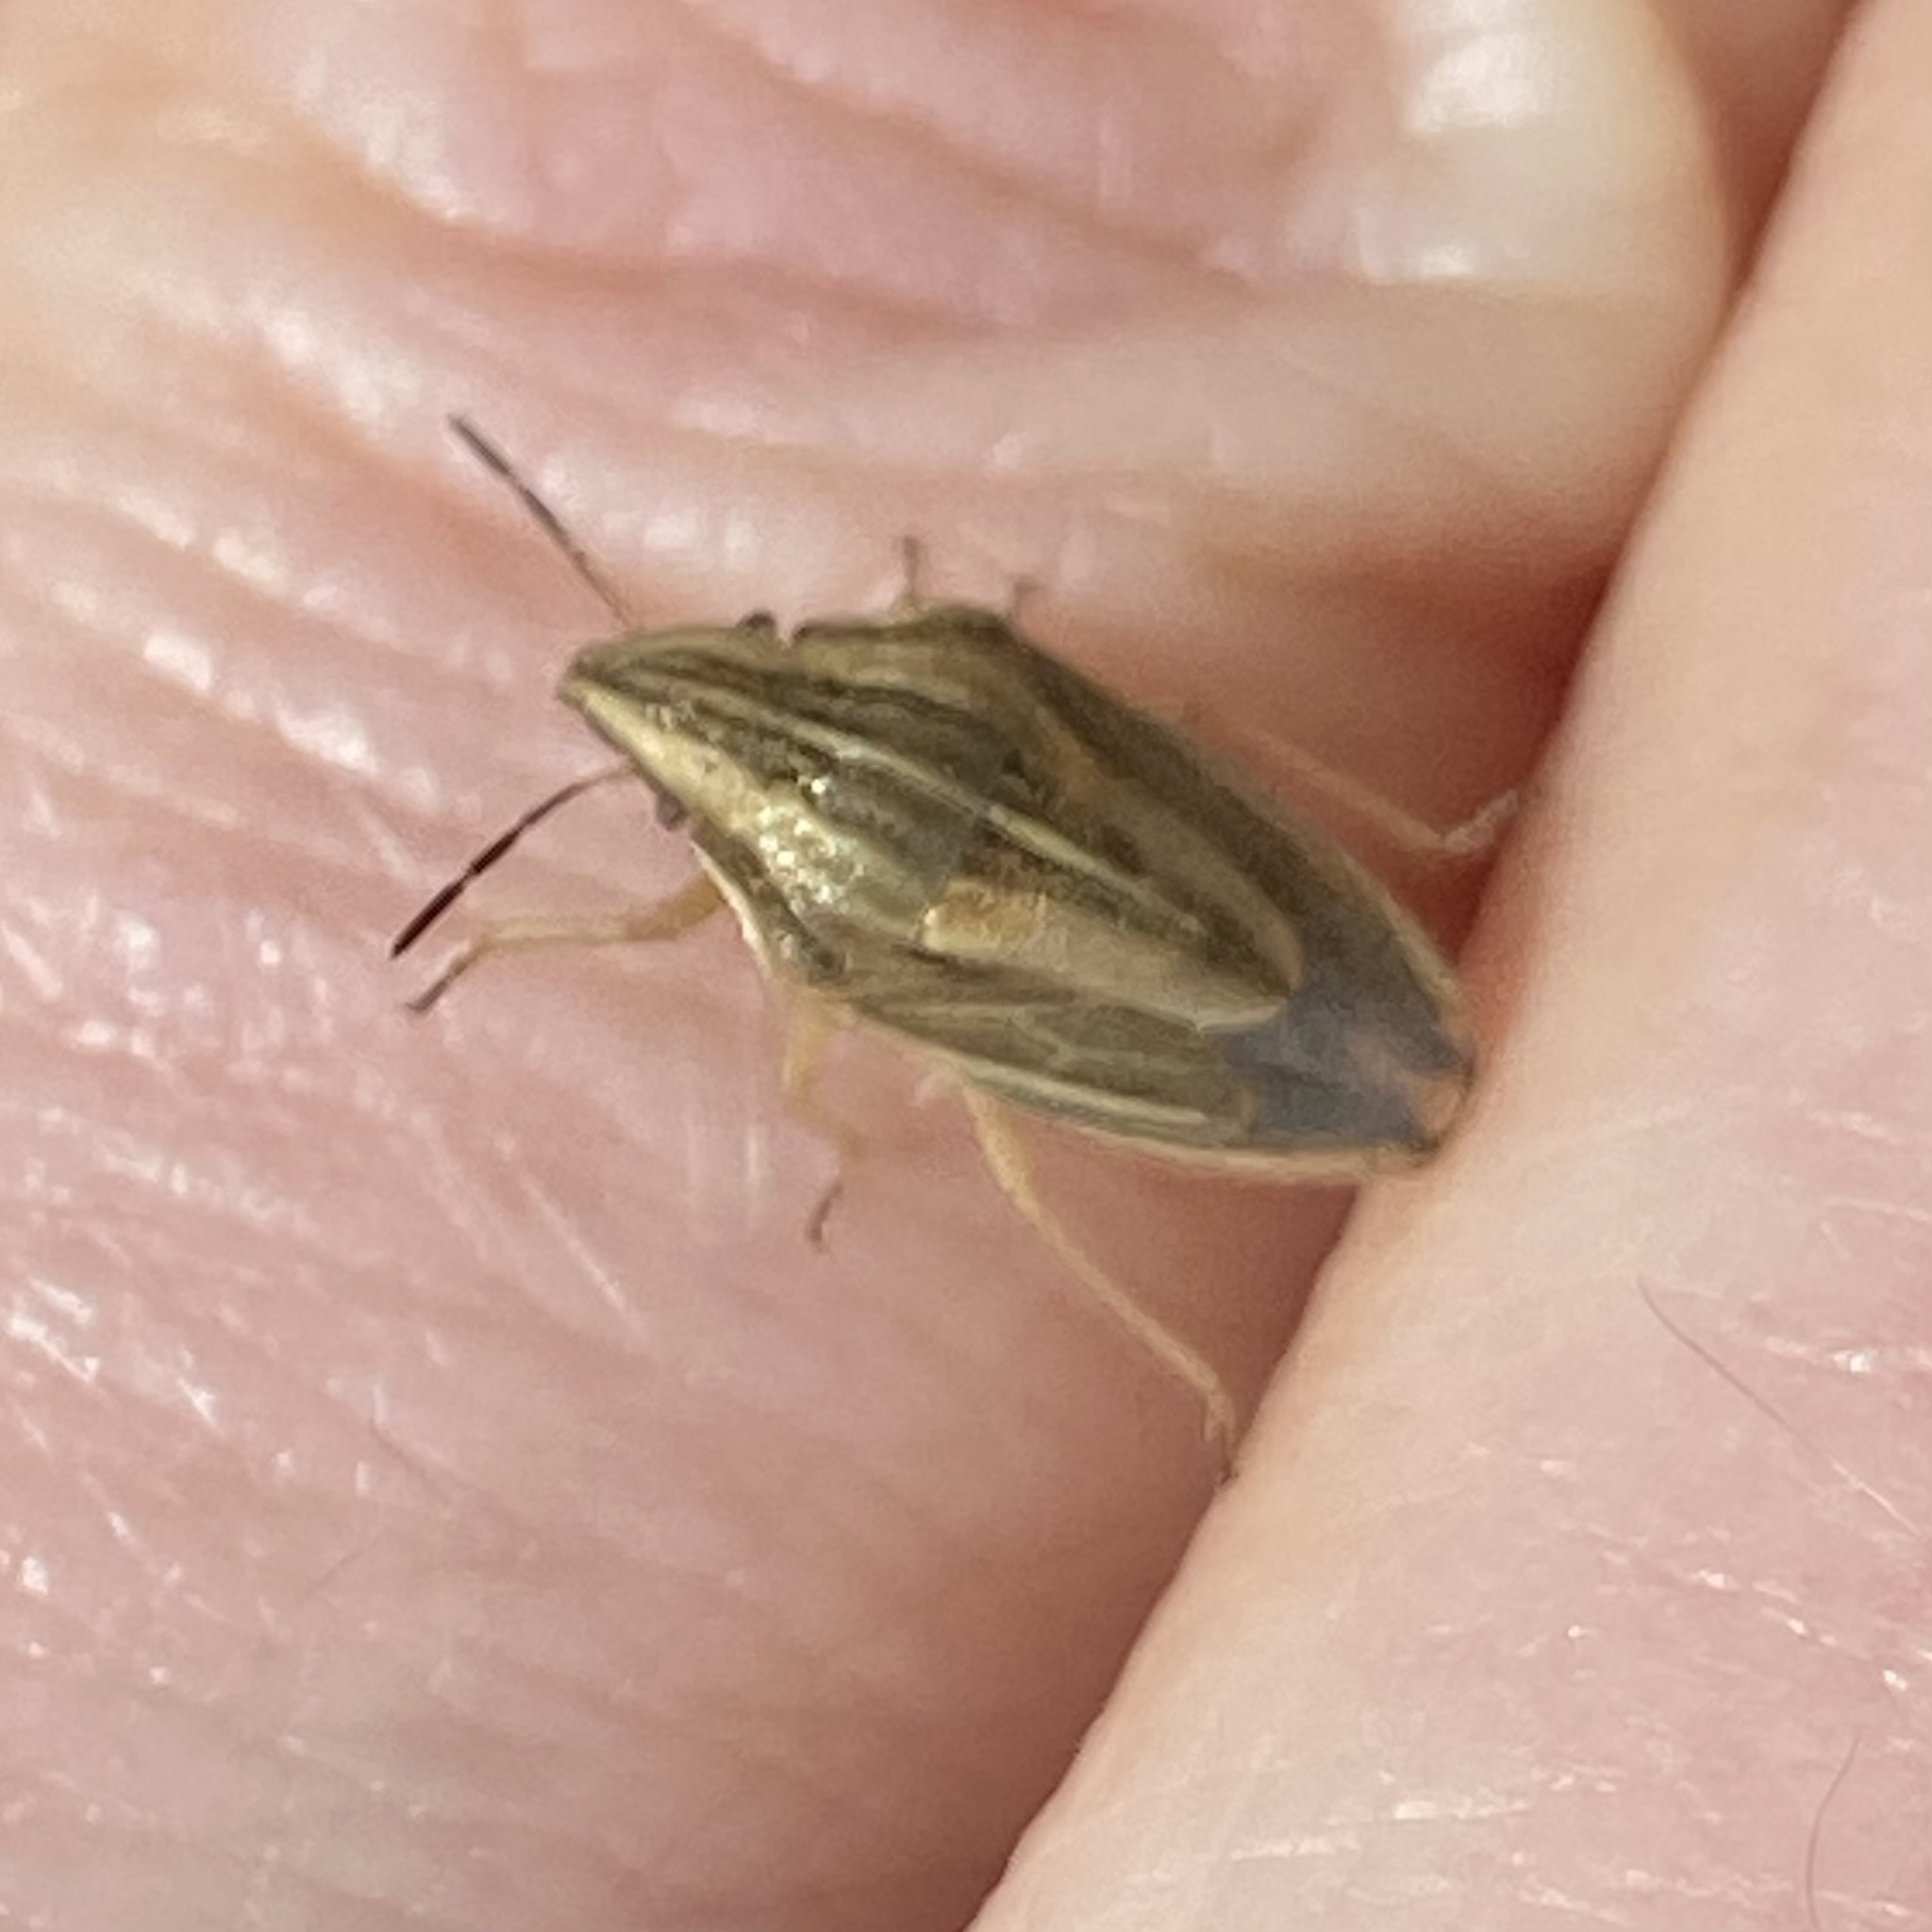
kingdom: Animalia
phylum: Arthropoda
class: Insecta
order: Hemiptera
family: Pentatomidae
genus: Aelia
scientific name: Aelia acuminata
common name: Bishop's mitre
